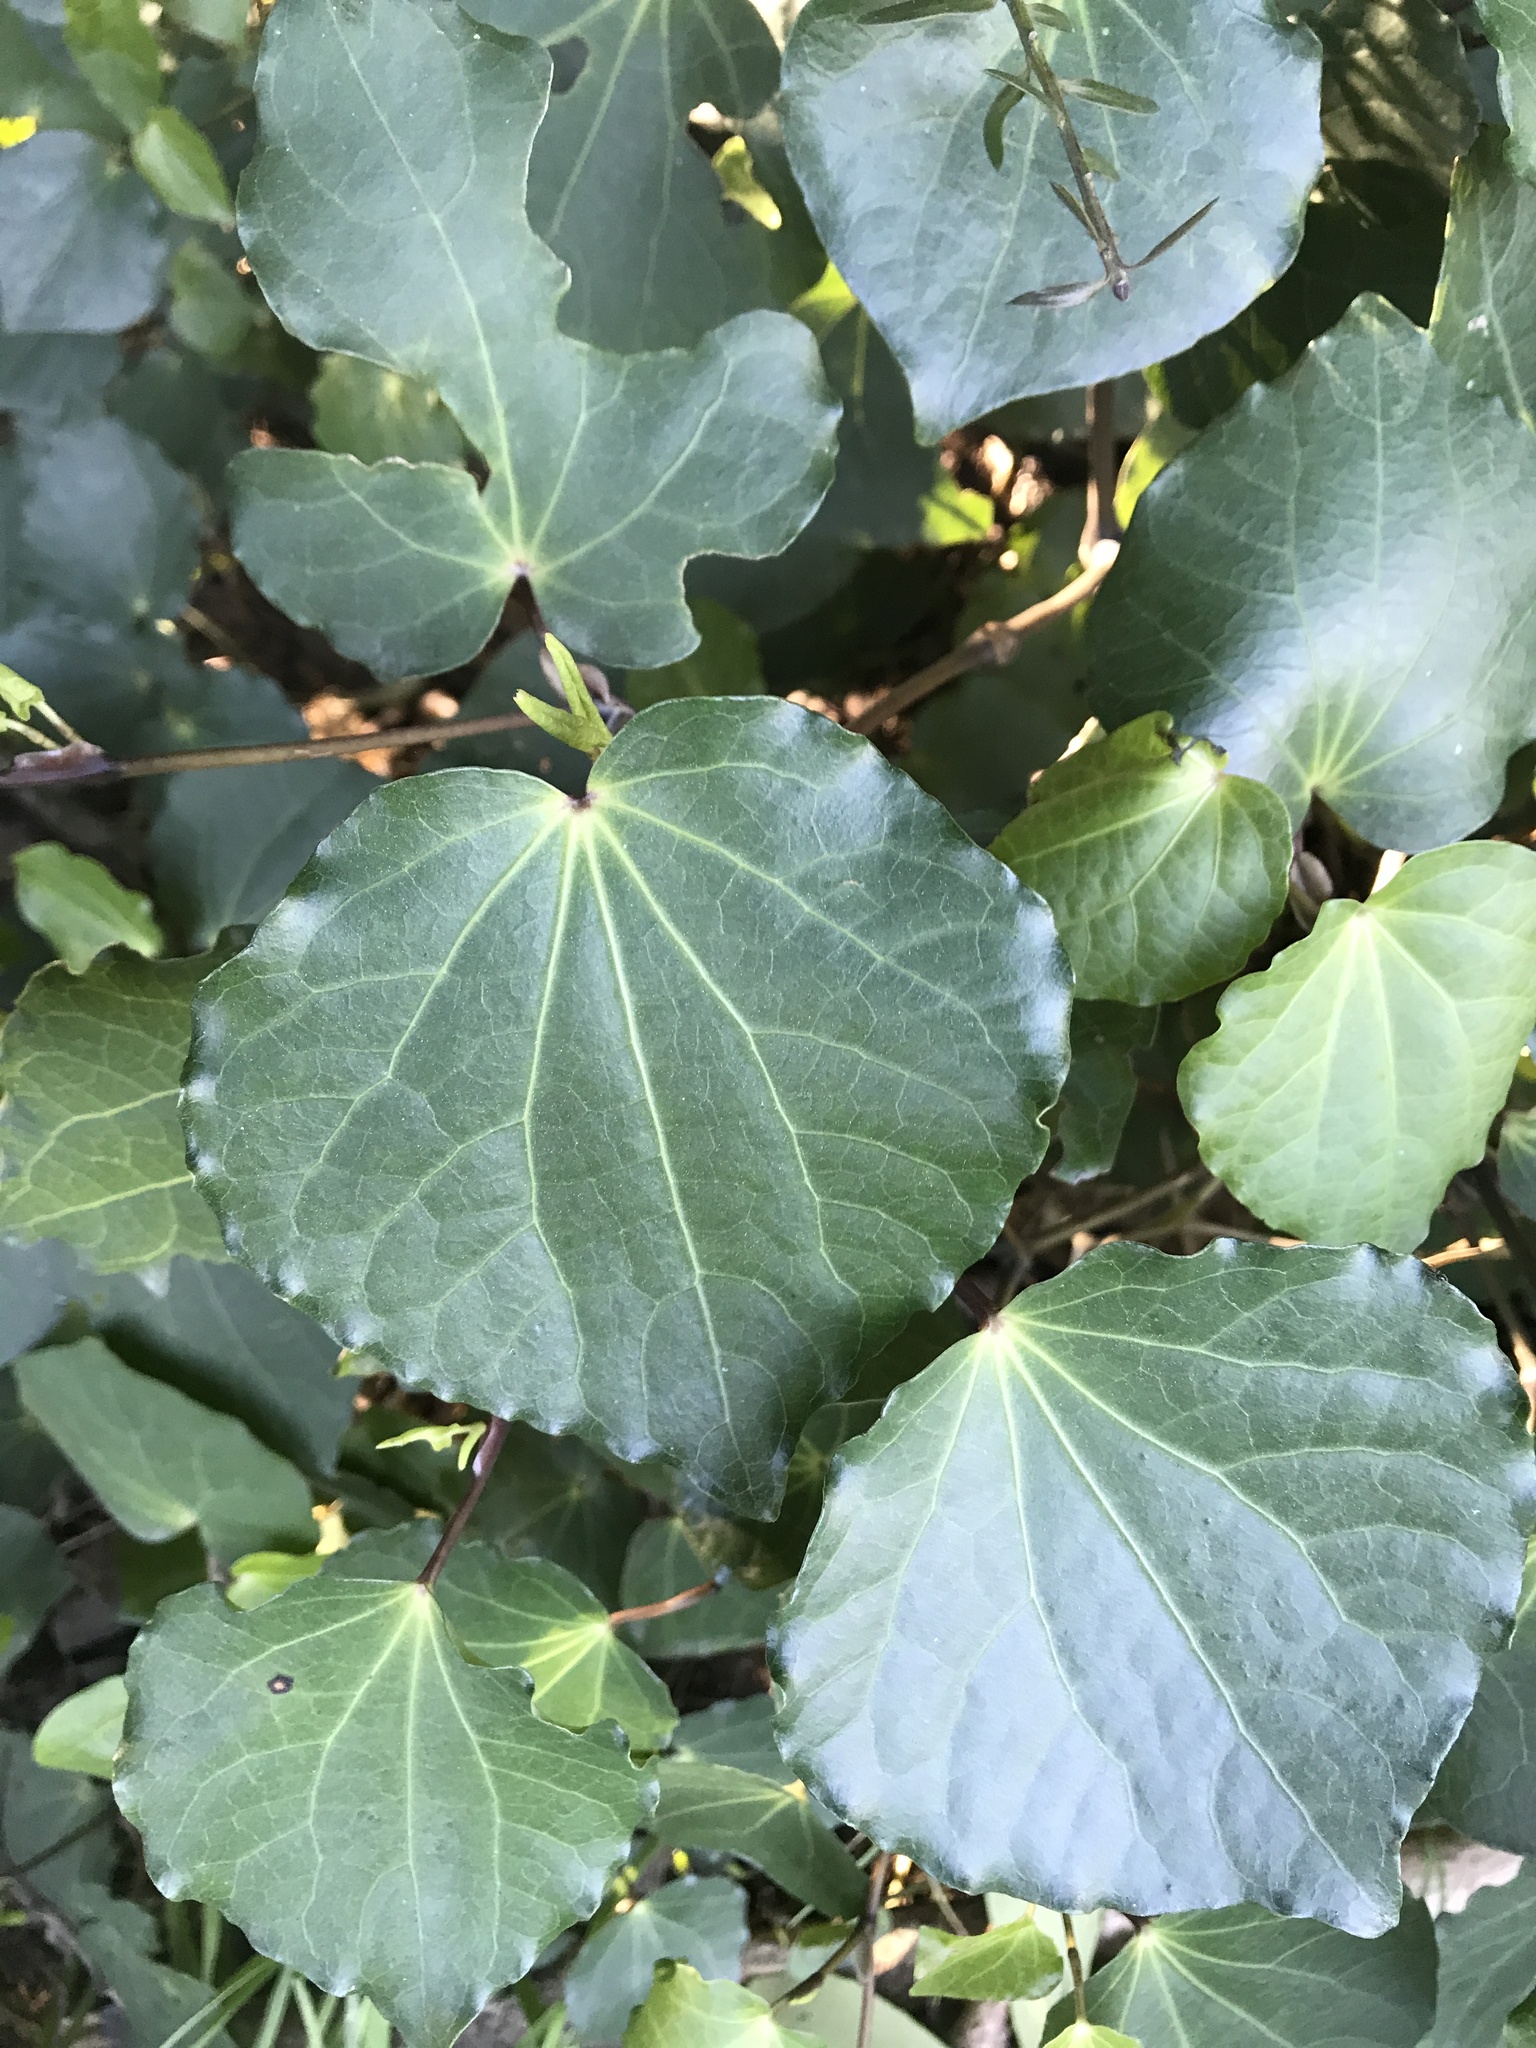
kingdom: Plantae
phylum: Tracheophyta
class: Magnoliopsida
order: Piperales
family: Piperaceae
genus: Macropiper
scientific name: Macropiper excelsum
